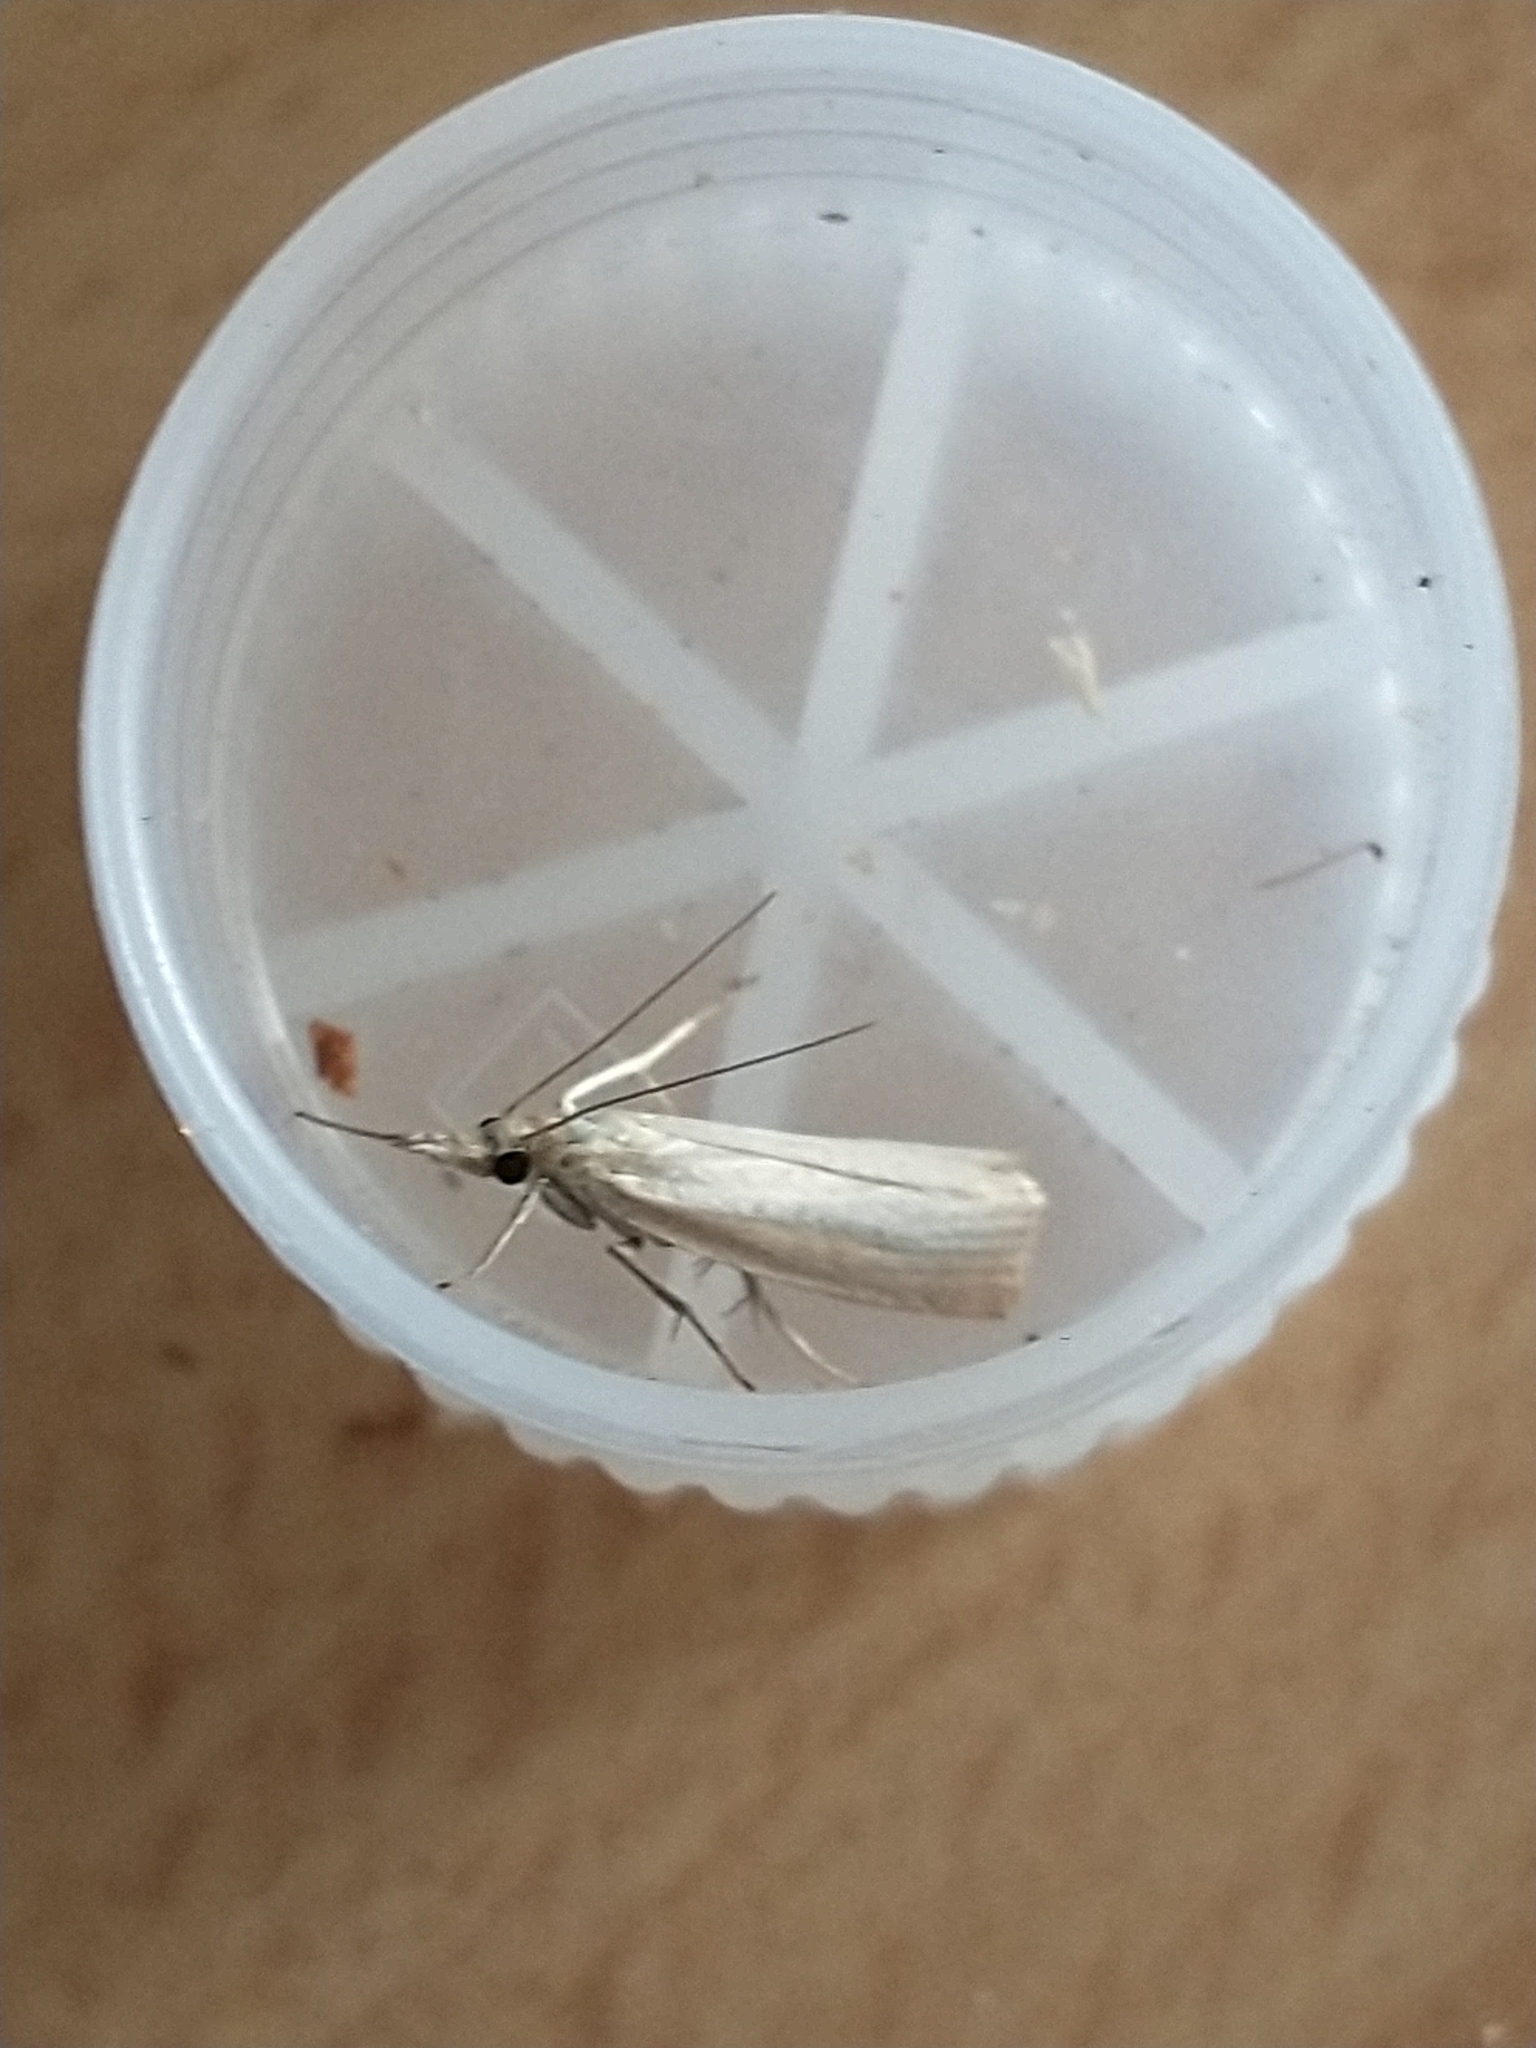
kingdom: Animalia
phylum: Arthropoda
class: Insecta
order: Lepidoptera
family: Crambidae
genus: Agriphila
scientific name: Agriphila straminella
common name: Straw grass-veneer
